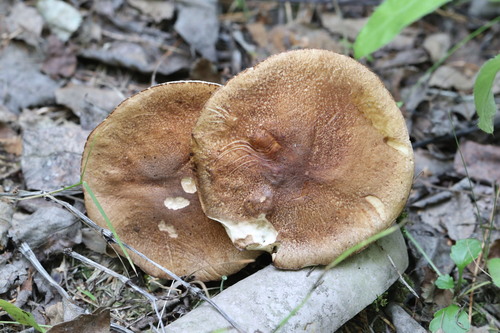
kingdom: Fungi
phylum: Basidiomycota
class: Agaricomycetes
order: Boletales
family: Boletaceae
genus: Leccinum
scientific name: Leccinum
